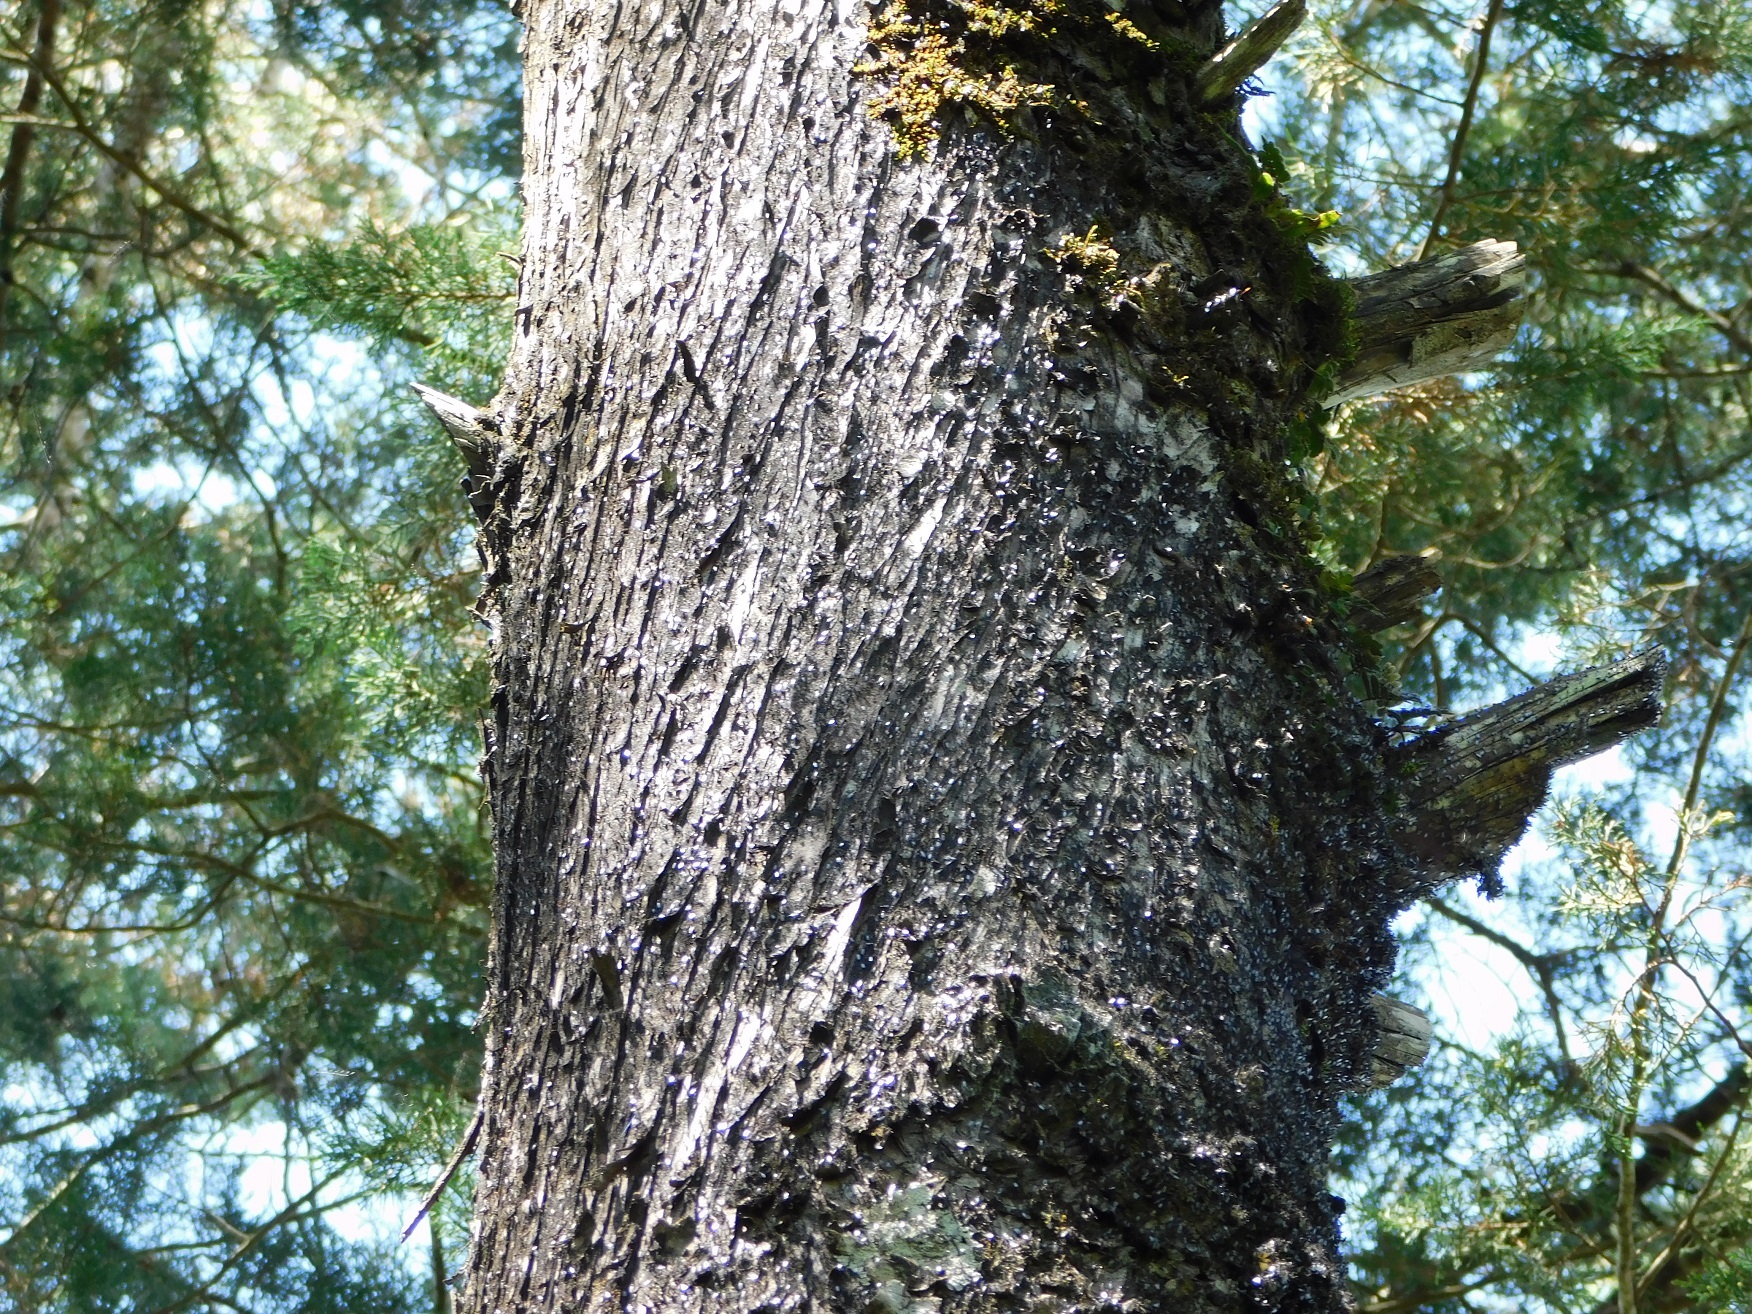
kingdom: Plantae
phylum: Tracheophyta
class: Pinopsida
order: Pinales
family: Cupressaceae
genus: Cupressus
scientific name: Cupressus lusitanica
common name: Mexican cypress
